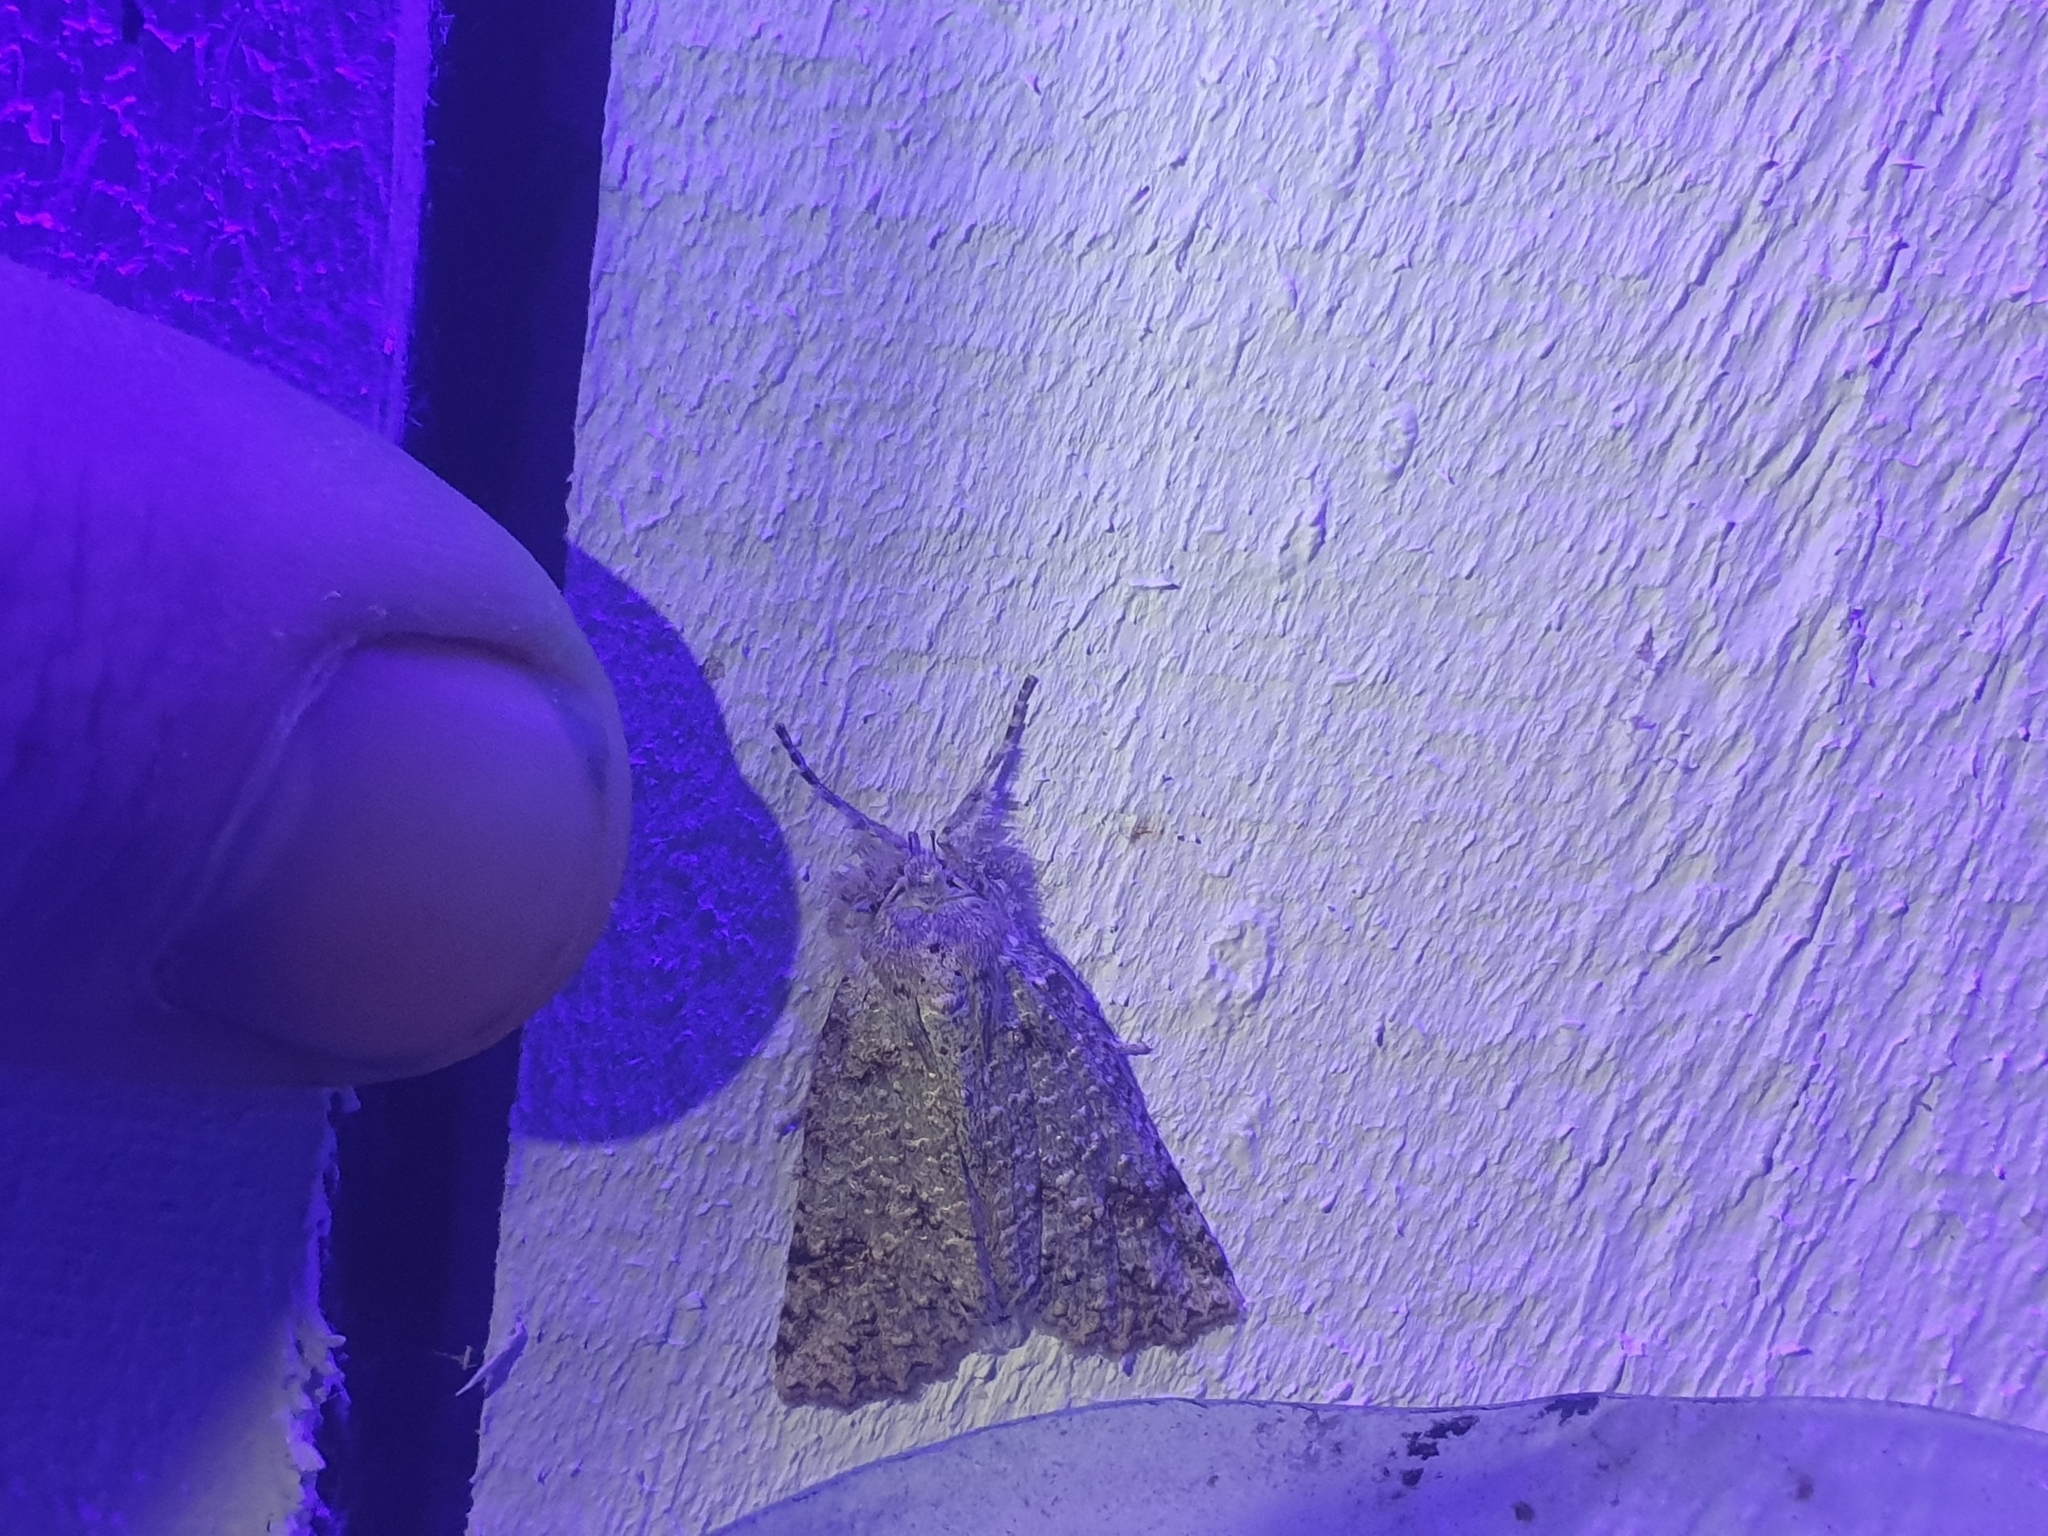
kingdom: Animalia
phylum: Arthropoda
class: Insecta
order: Lepidoptera
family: Geometridae
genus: Declana
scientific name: Declana floccosa
